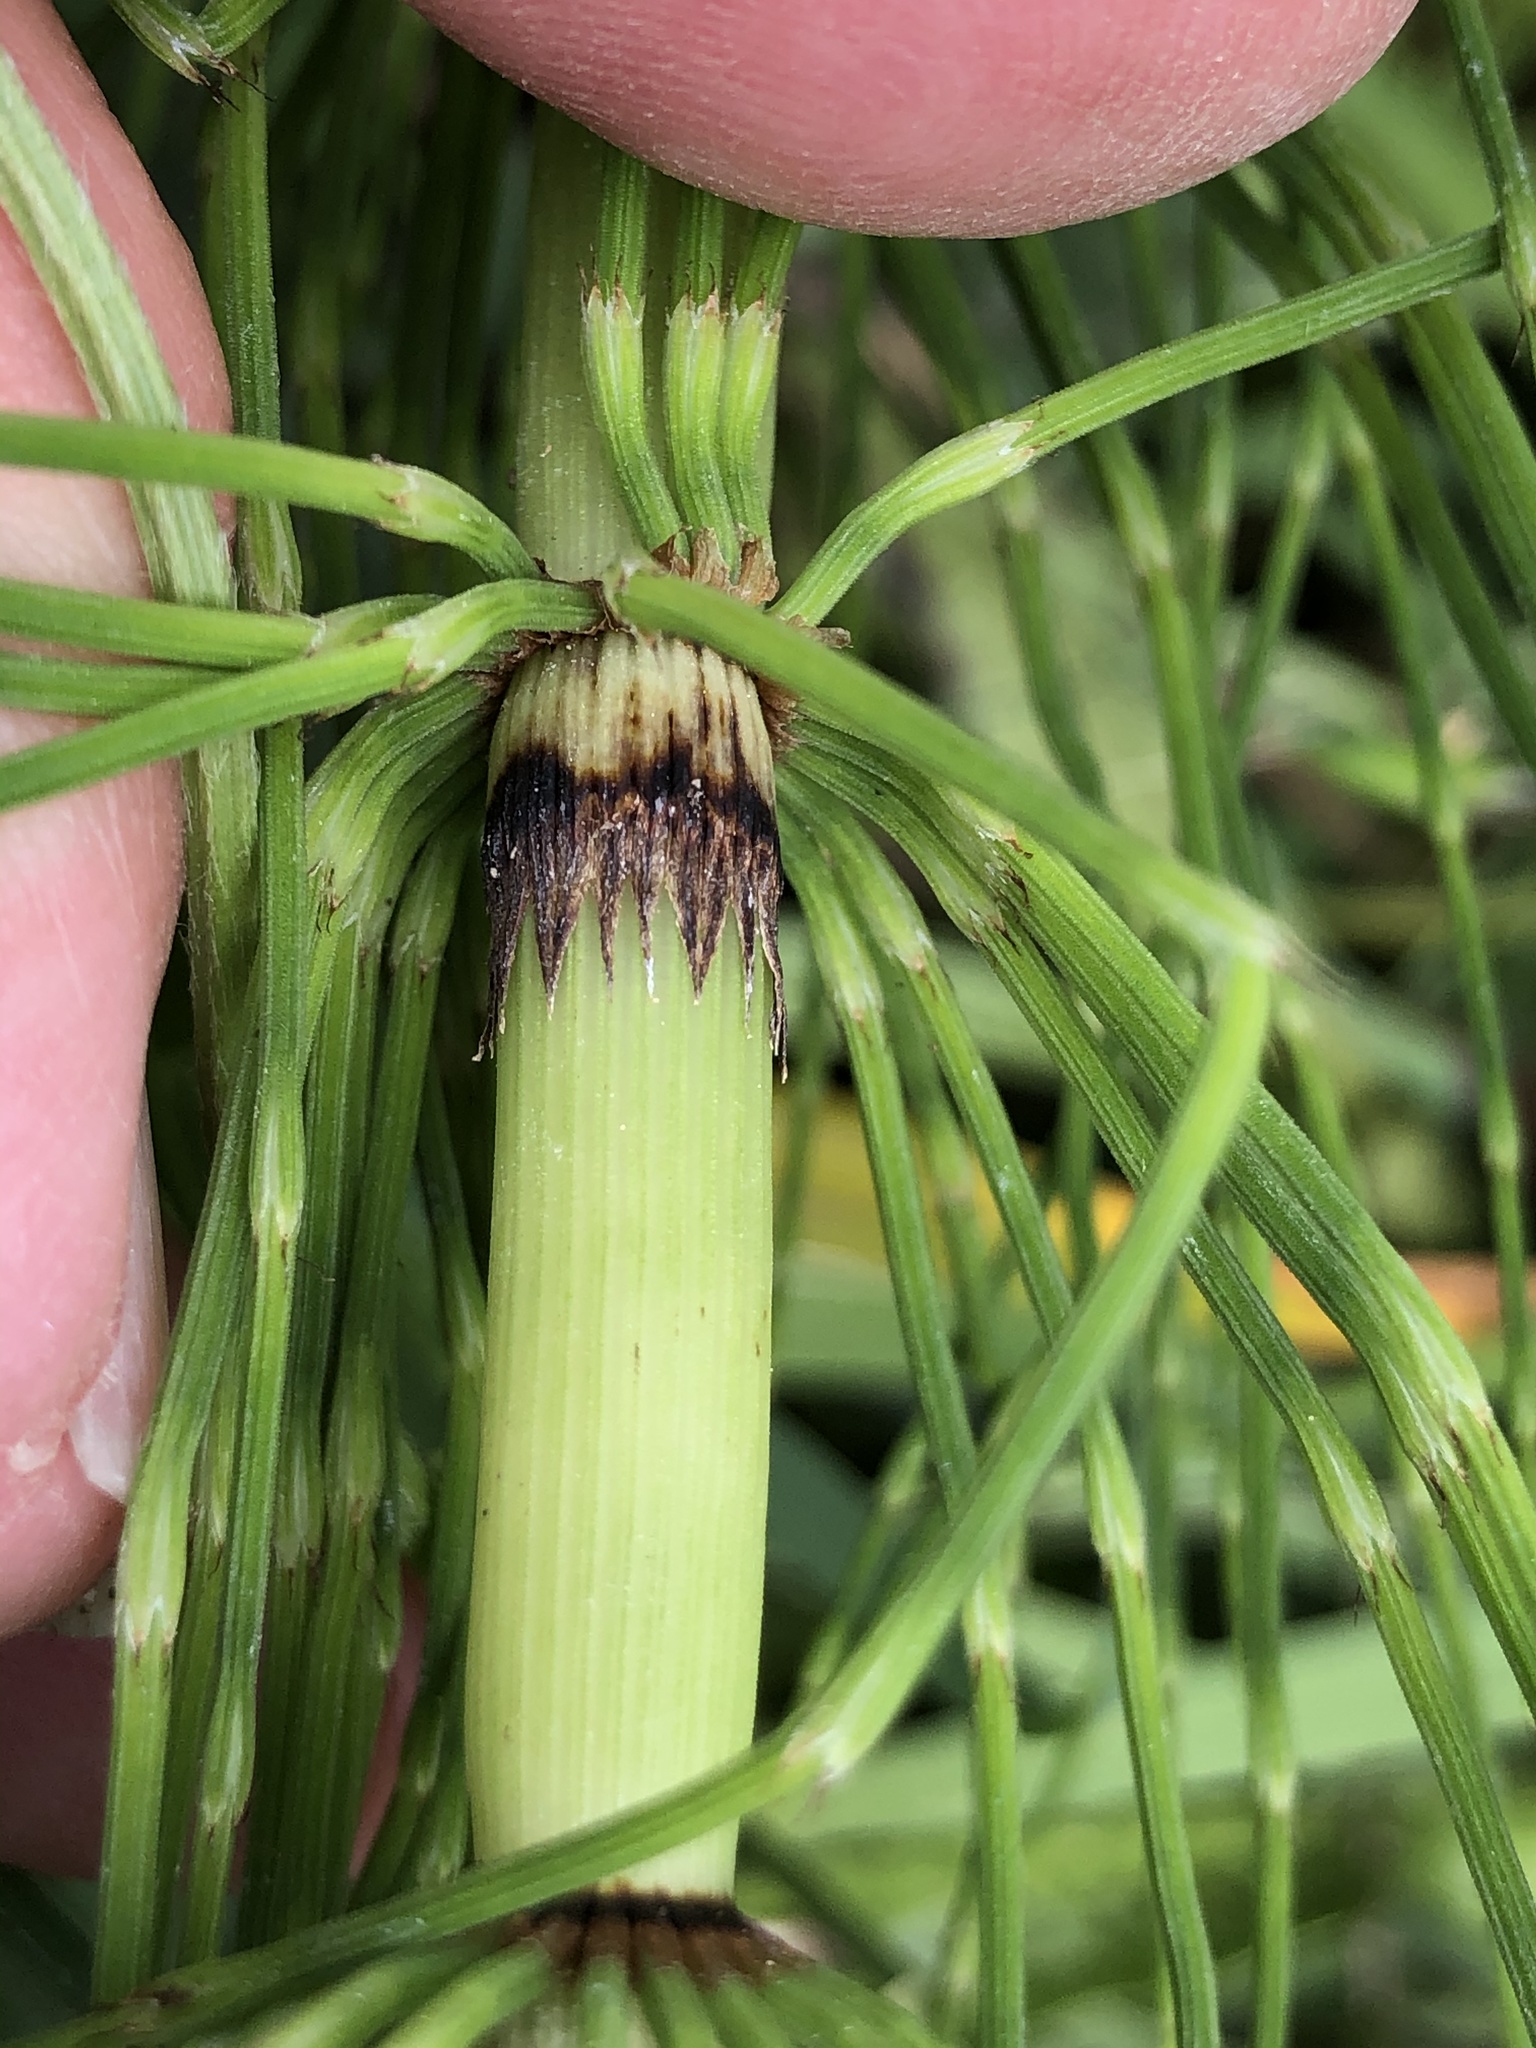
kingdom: Plantae
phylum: Tracheophyta
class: Polypodiopsida
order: Equisetales
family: Equisetaceae
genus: Equisetum
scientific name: Equisetum telmateia
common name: Great horsetail
